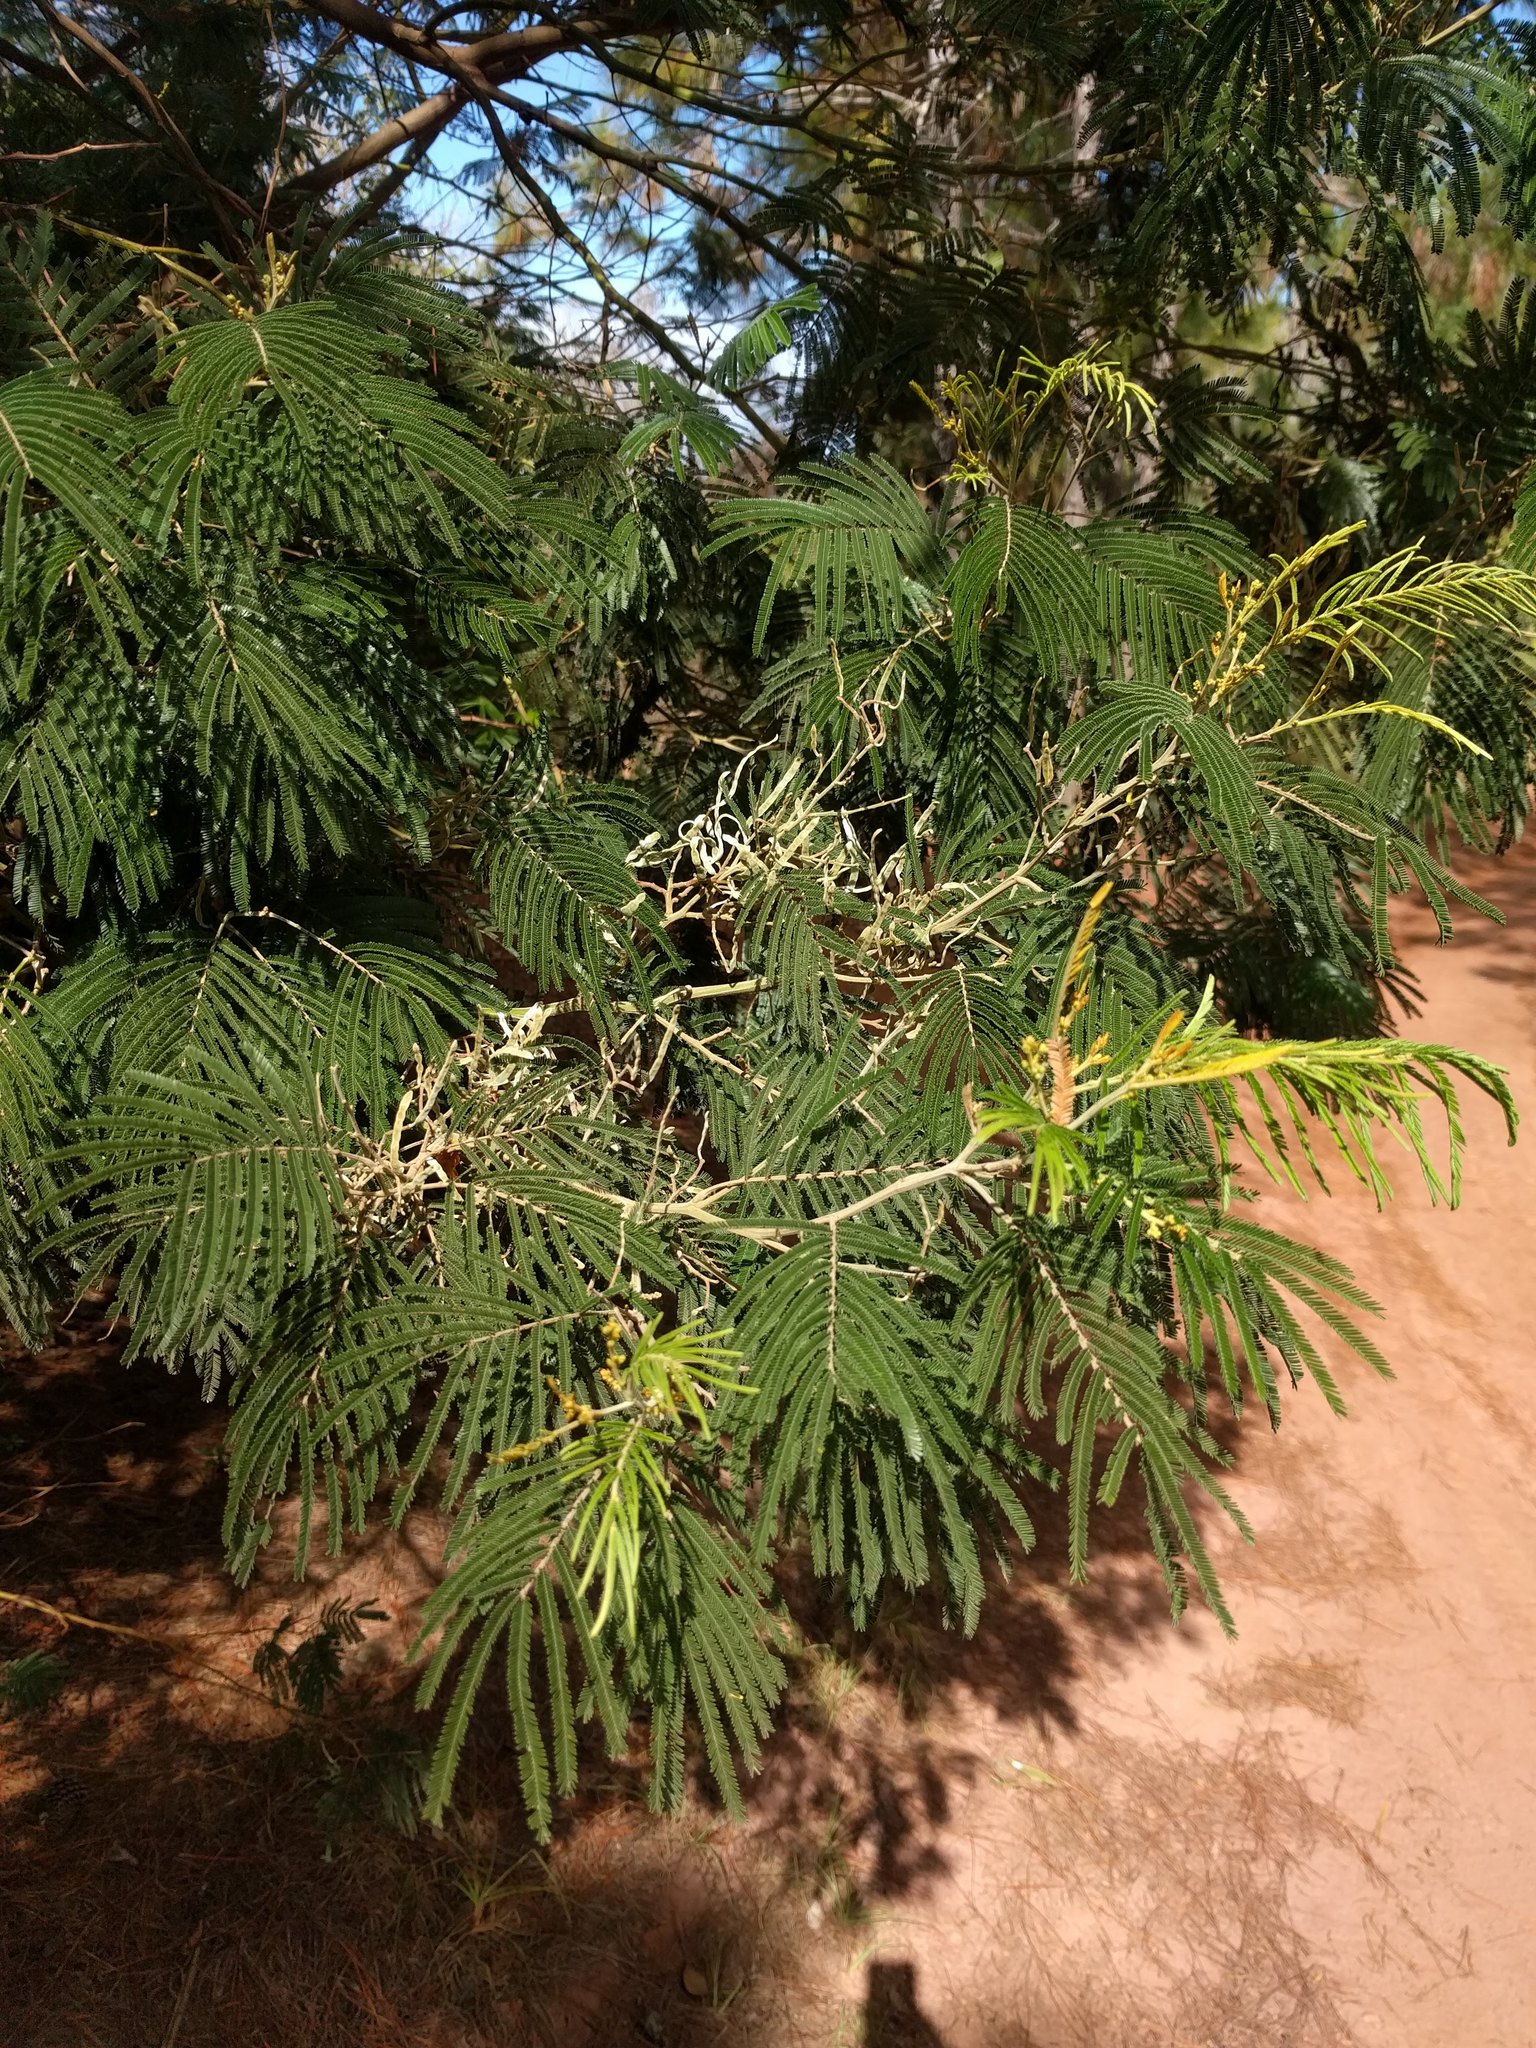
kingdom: Plantae
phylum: Tracheophyta
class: Magnoliopsida
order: Fabales
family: Fabaceae
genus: Acacia
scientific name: Acacia mearnsii
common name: Black wattle
